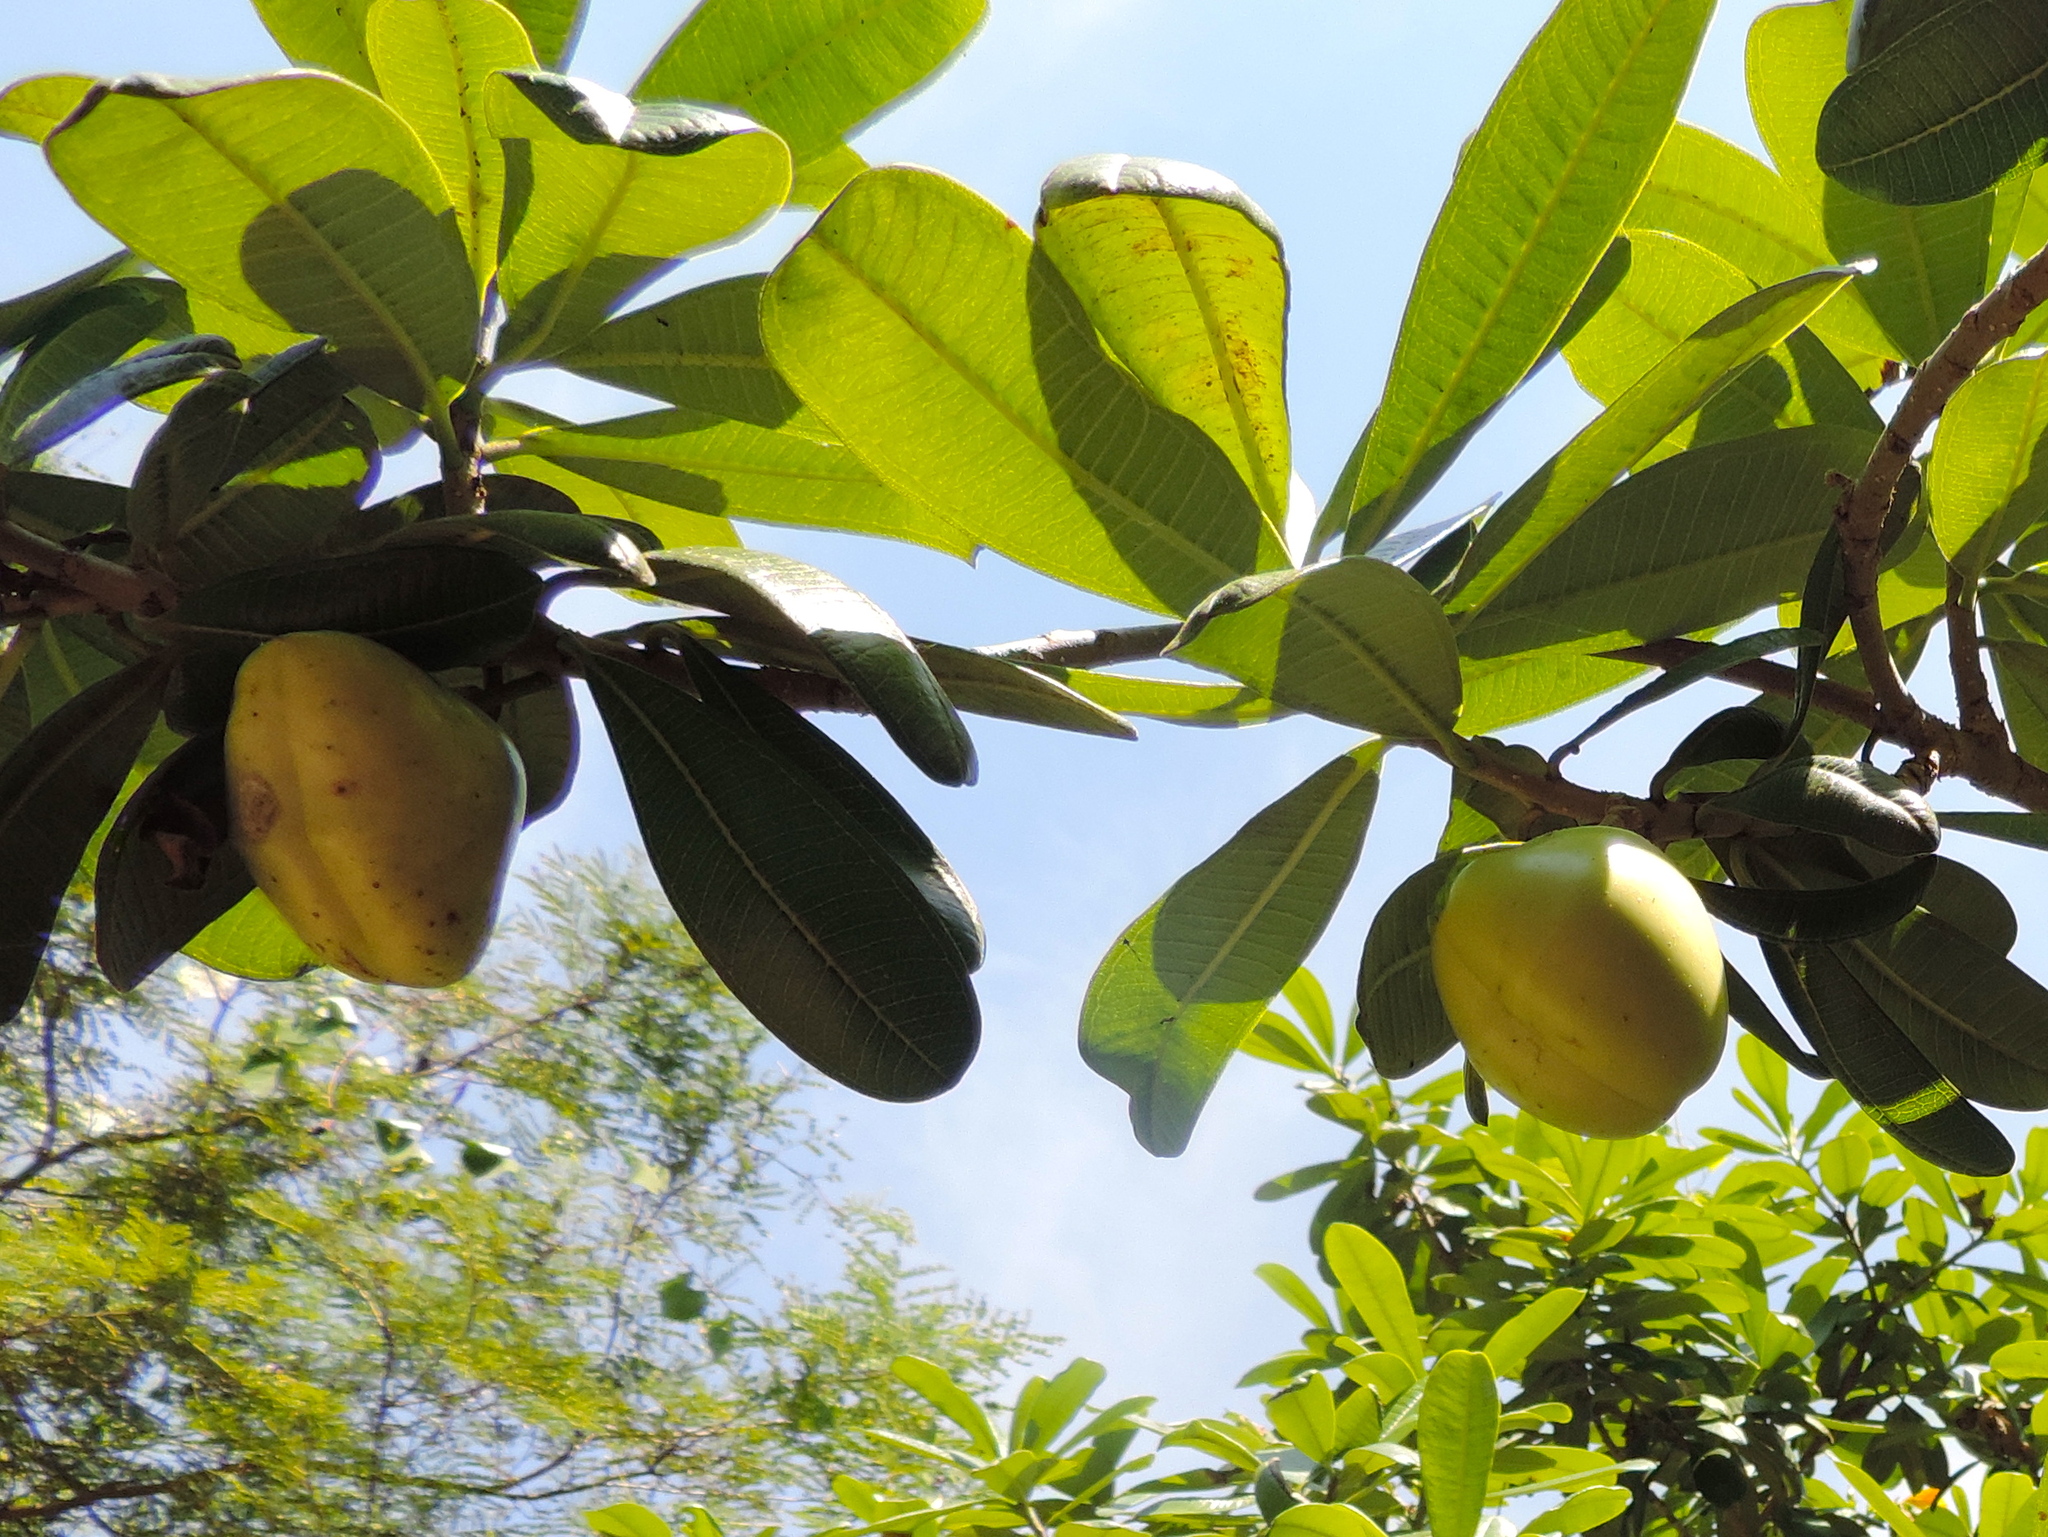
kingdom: Plantae
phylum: Tracheophyta
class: Magnoliopsida
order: Gentianales
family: Apocynaceae
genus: Cascabela
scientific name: Cascabela ovata
